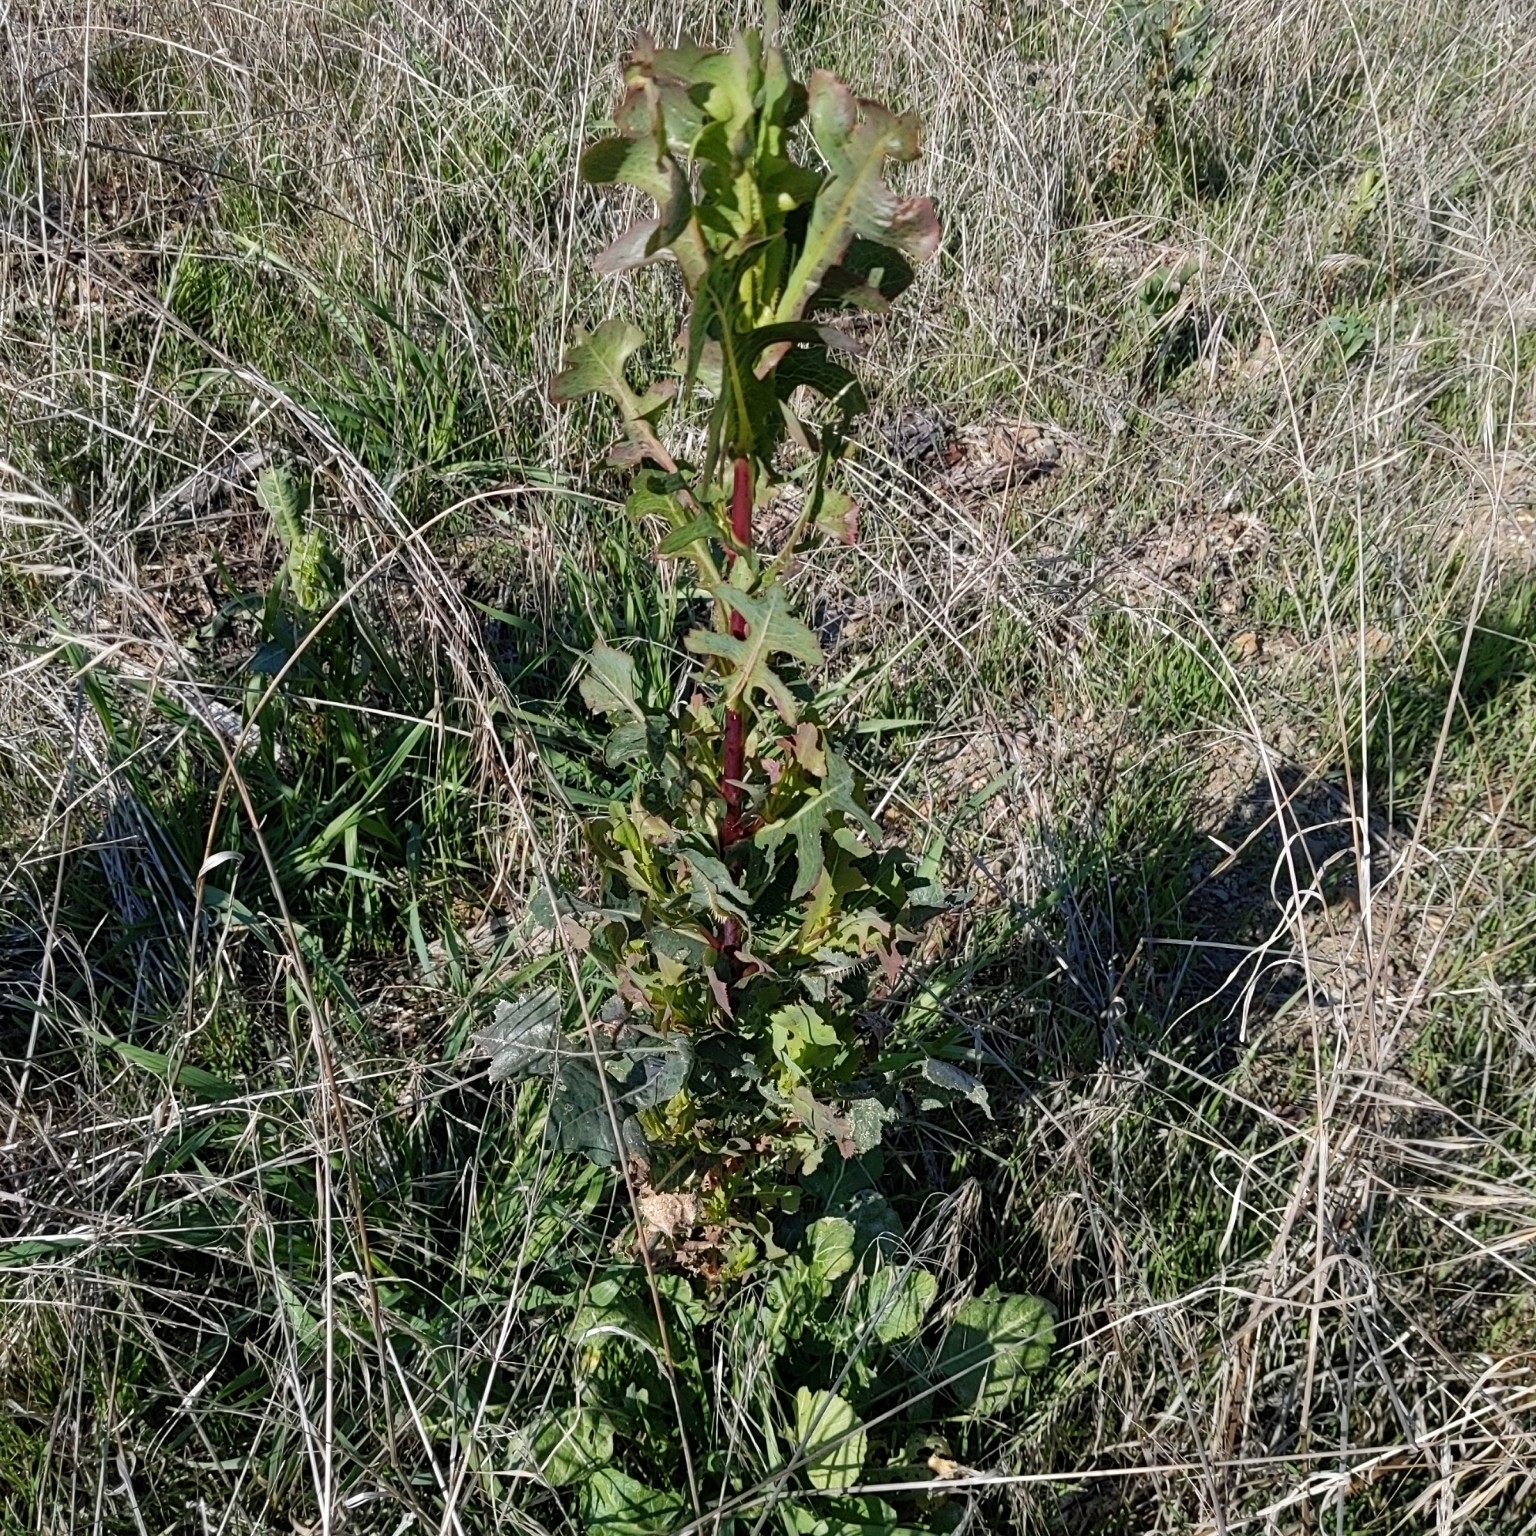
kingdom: Plantae
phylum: Tracheophyta
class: Magnoliopsida
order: Asterales
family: Asteraceae
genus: Lactuca
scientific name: Lactuca serriola
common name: Prickly lettuce
